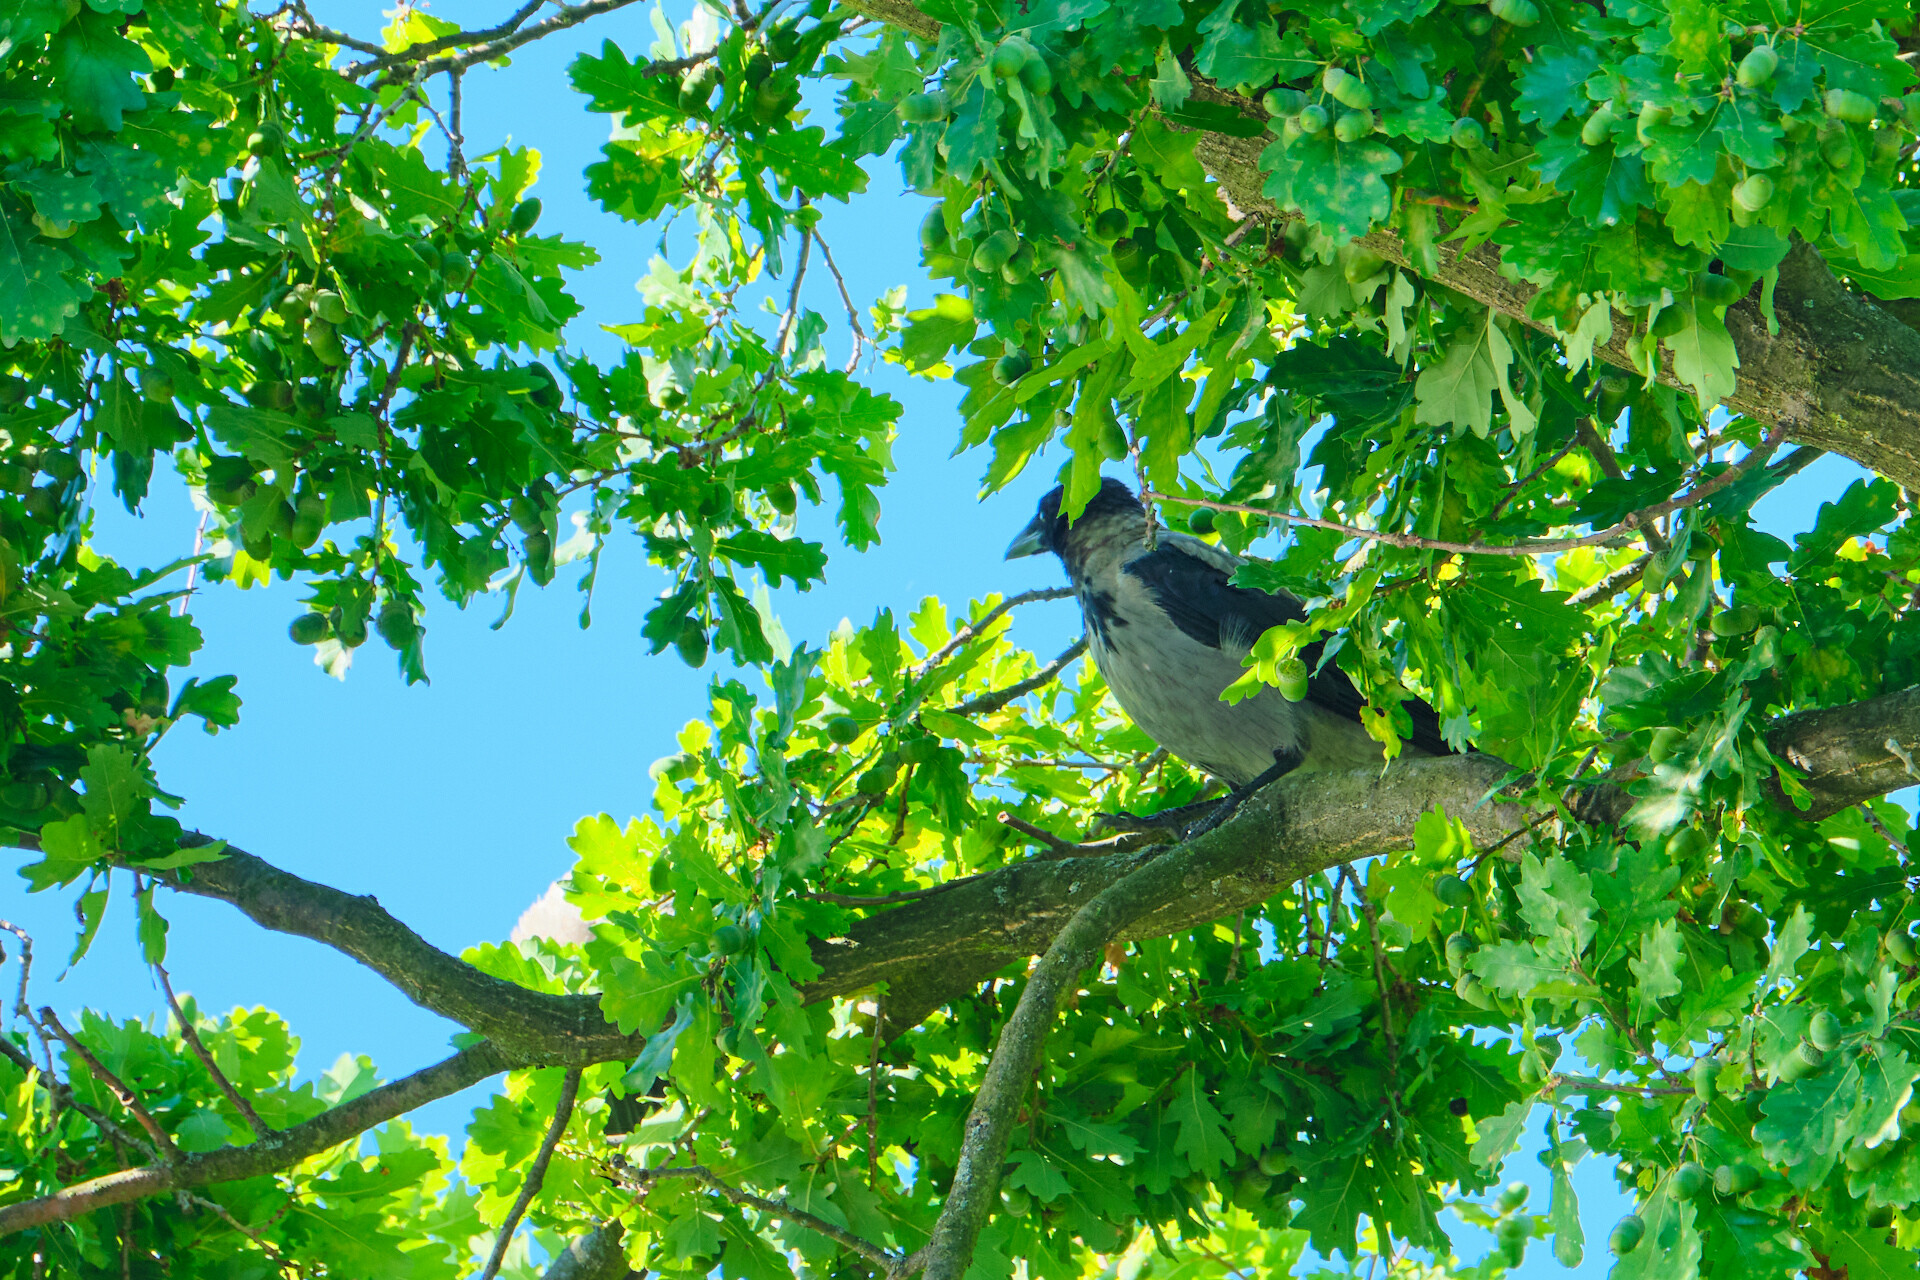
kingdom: Animalia
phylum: Chordata
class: Aves
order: Passeriformes
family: Corvidae
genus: Corvus
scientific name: Corvus cornix
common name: Hooded crow
